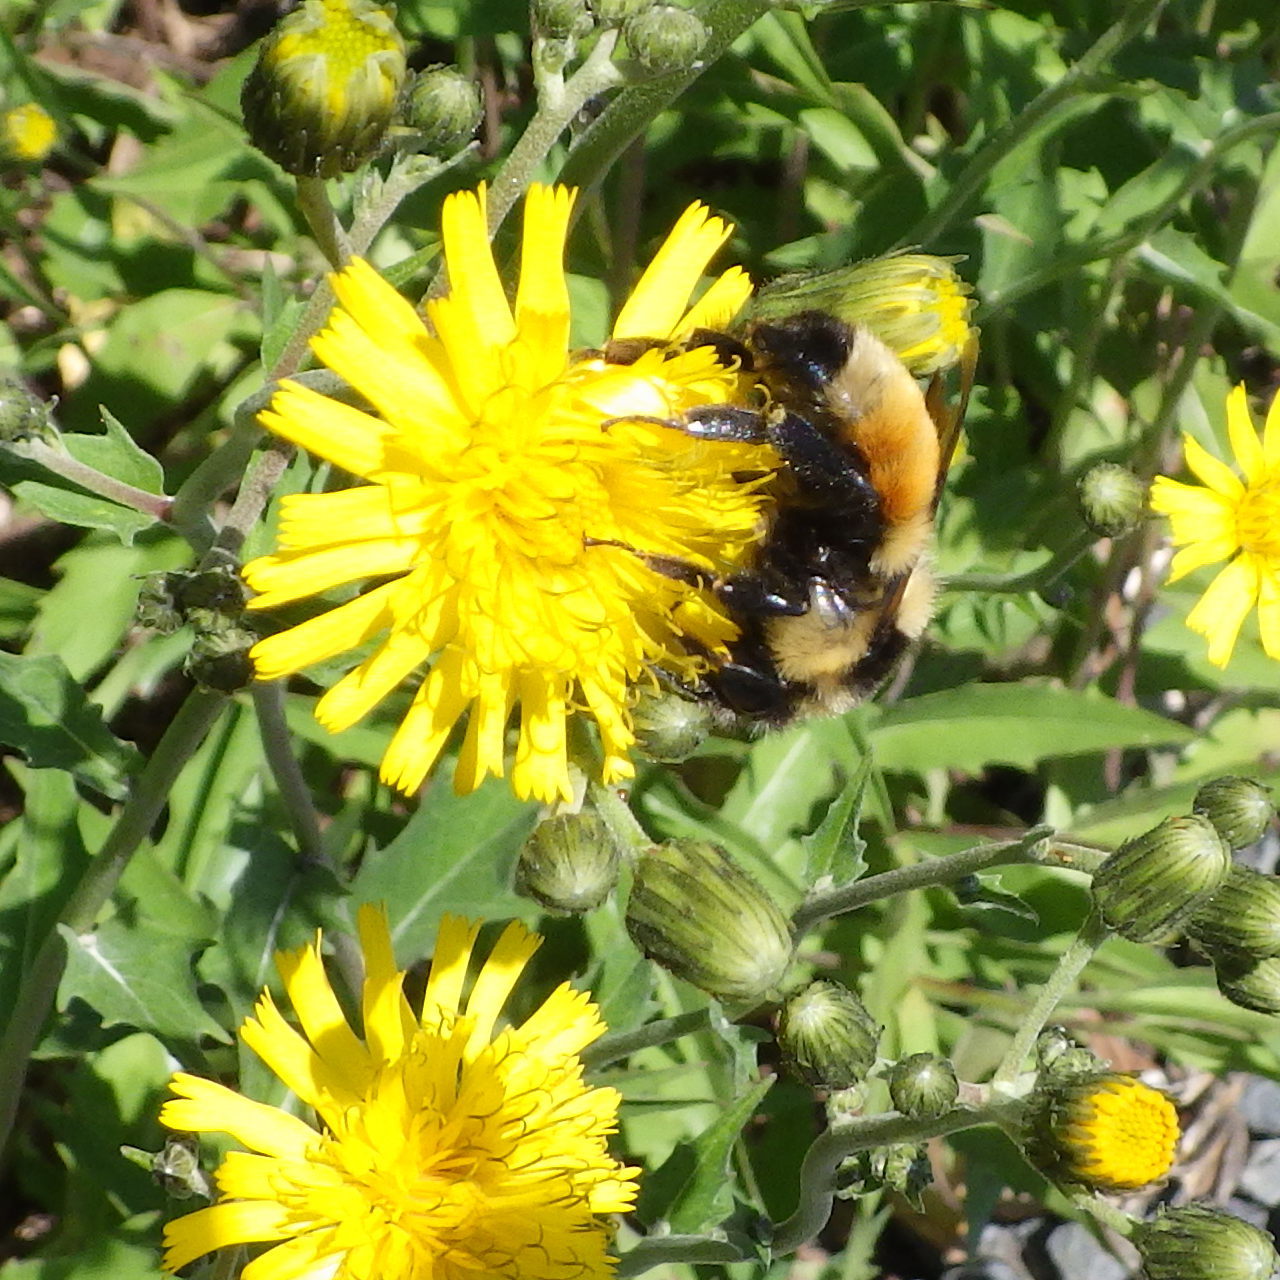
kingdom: Animalia
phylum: Arthropoda
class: Insecta
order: Hymenoptera
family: Apidae
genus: Bombus
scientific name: Bombus ternarius
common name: Tri-colored bumble bee
